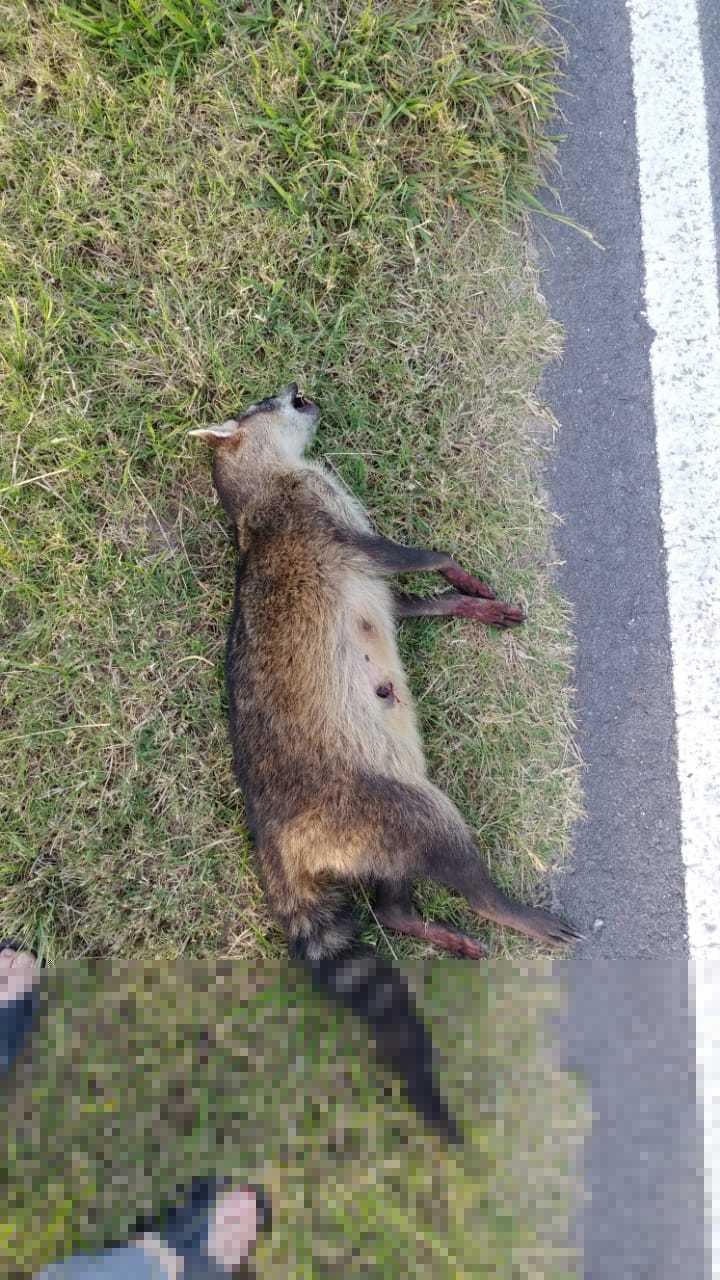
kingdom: Animalia
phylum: Chordata
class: Mammalia
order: Carnivora
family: Procyonidae
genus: Procyon
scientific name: Procyon cancrivorus
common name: Crab-eating raccoon
